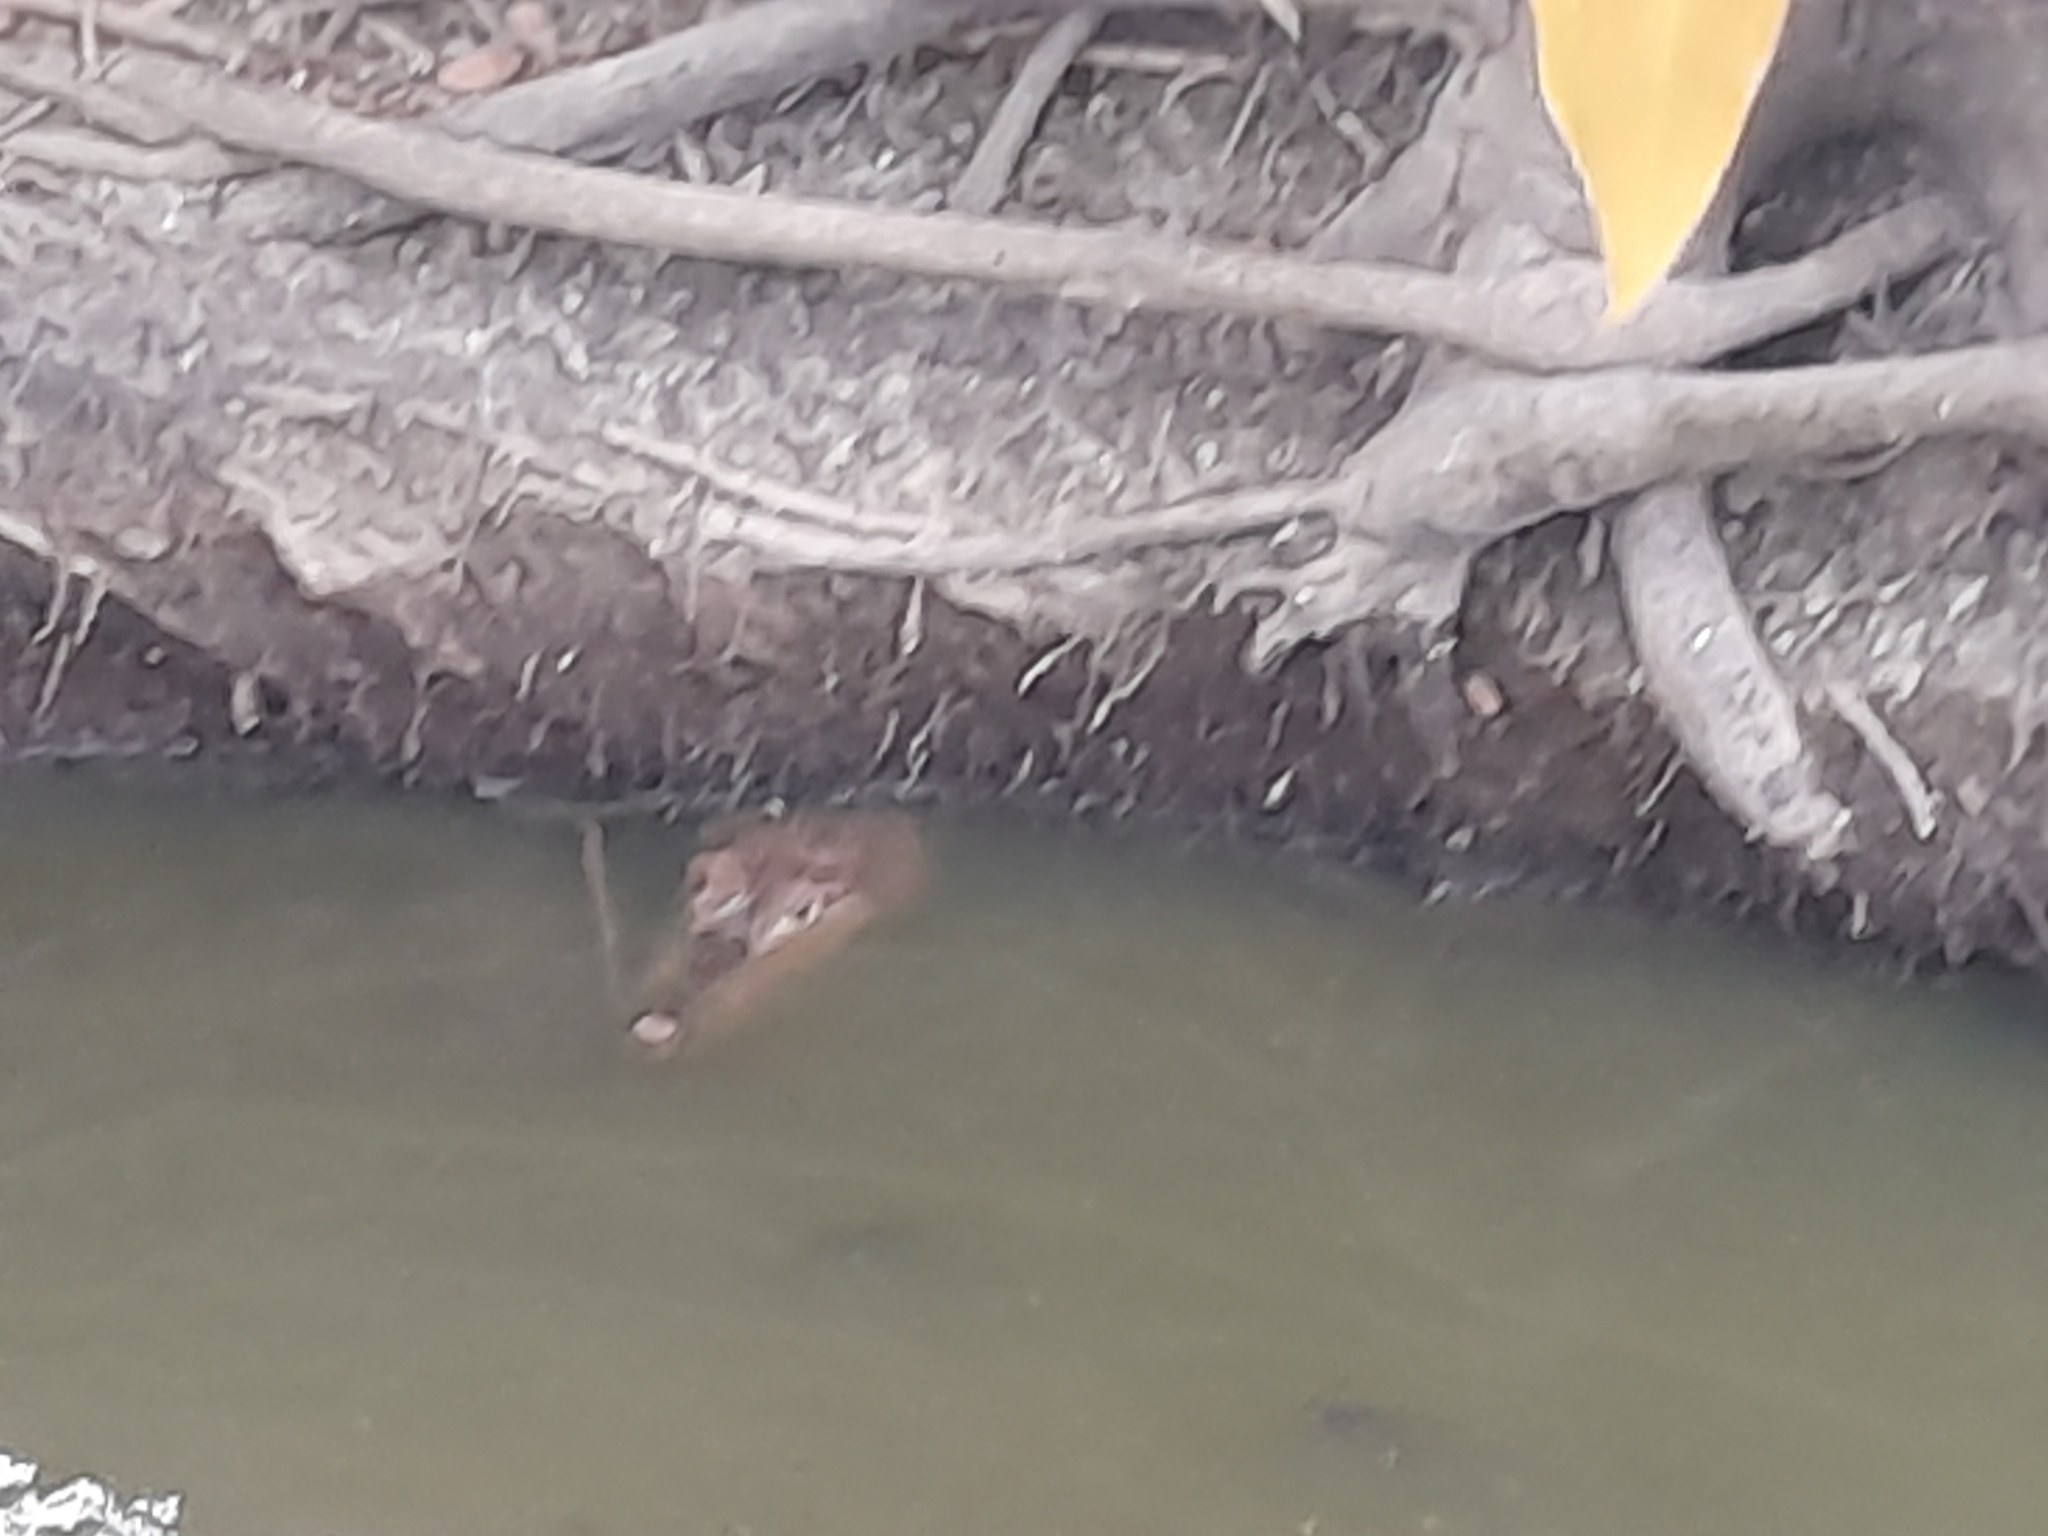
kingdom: Animalia
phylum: Chordata
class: Crocodylia
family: Alligatoridae
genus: Caiman
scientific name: Caiman crocodilus
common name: Common caiman
